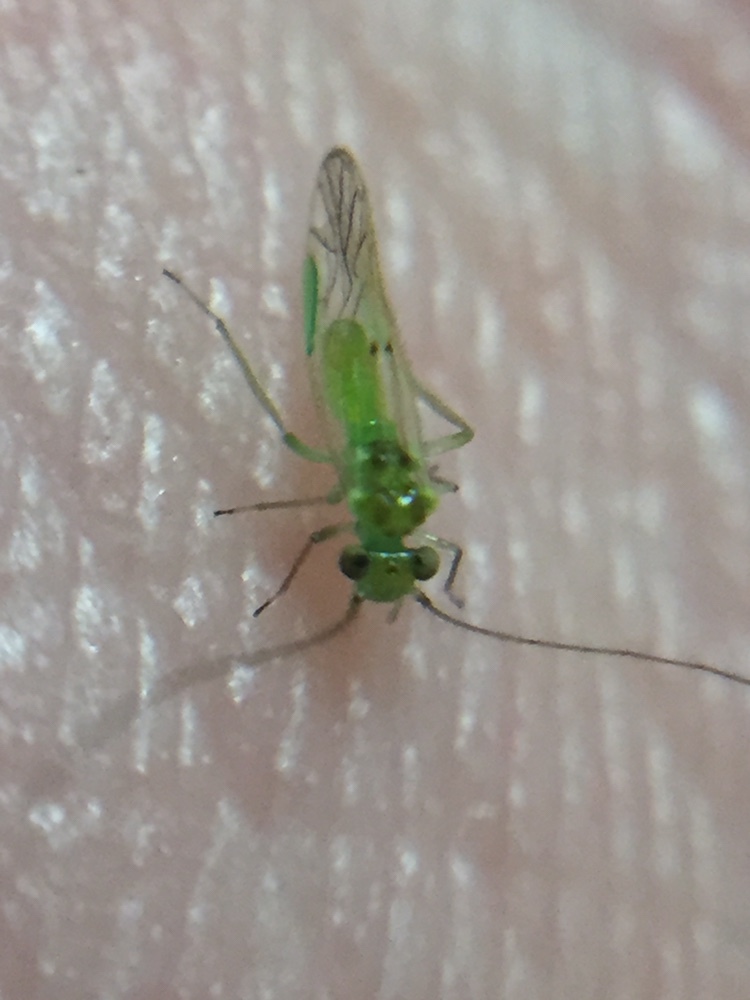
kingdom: Animalia
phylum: Arthropoda
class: Insecta
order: Psocodea
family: Pseudocaeciliidae
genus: Austropsocus
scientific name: Austropsocus viridis
